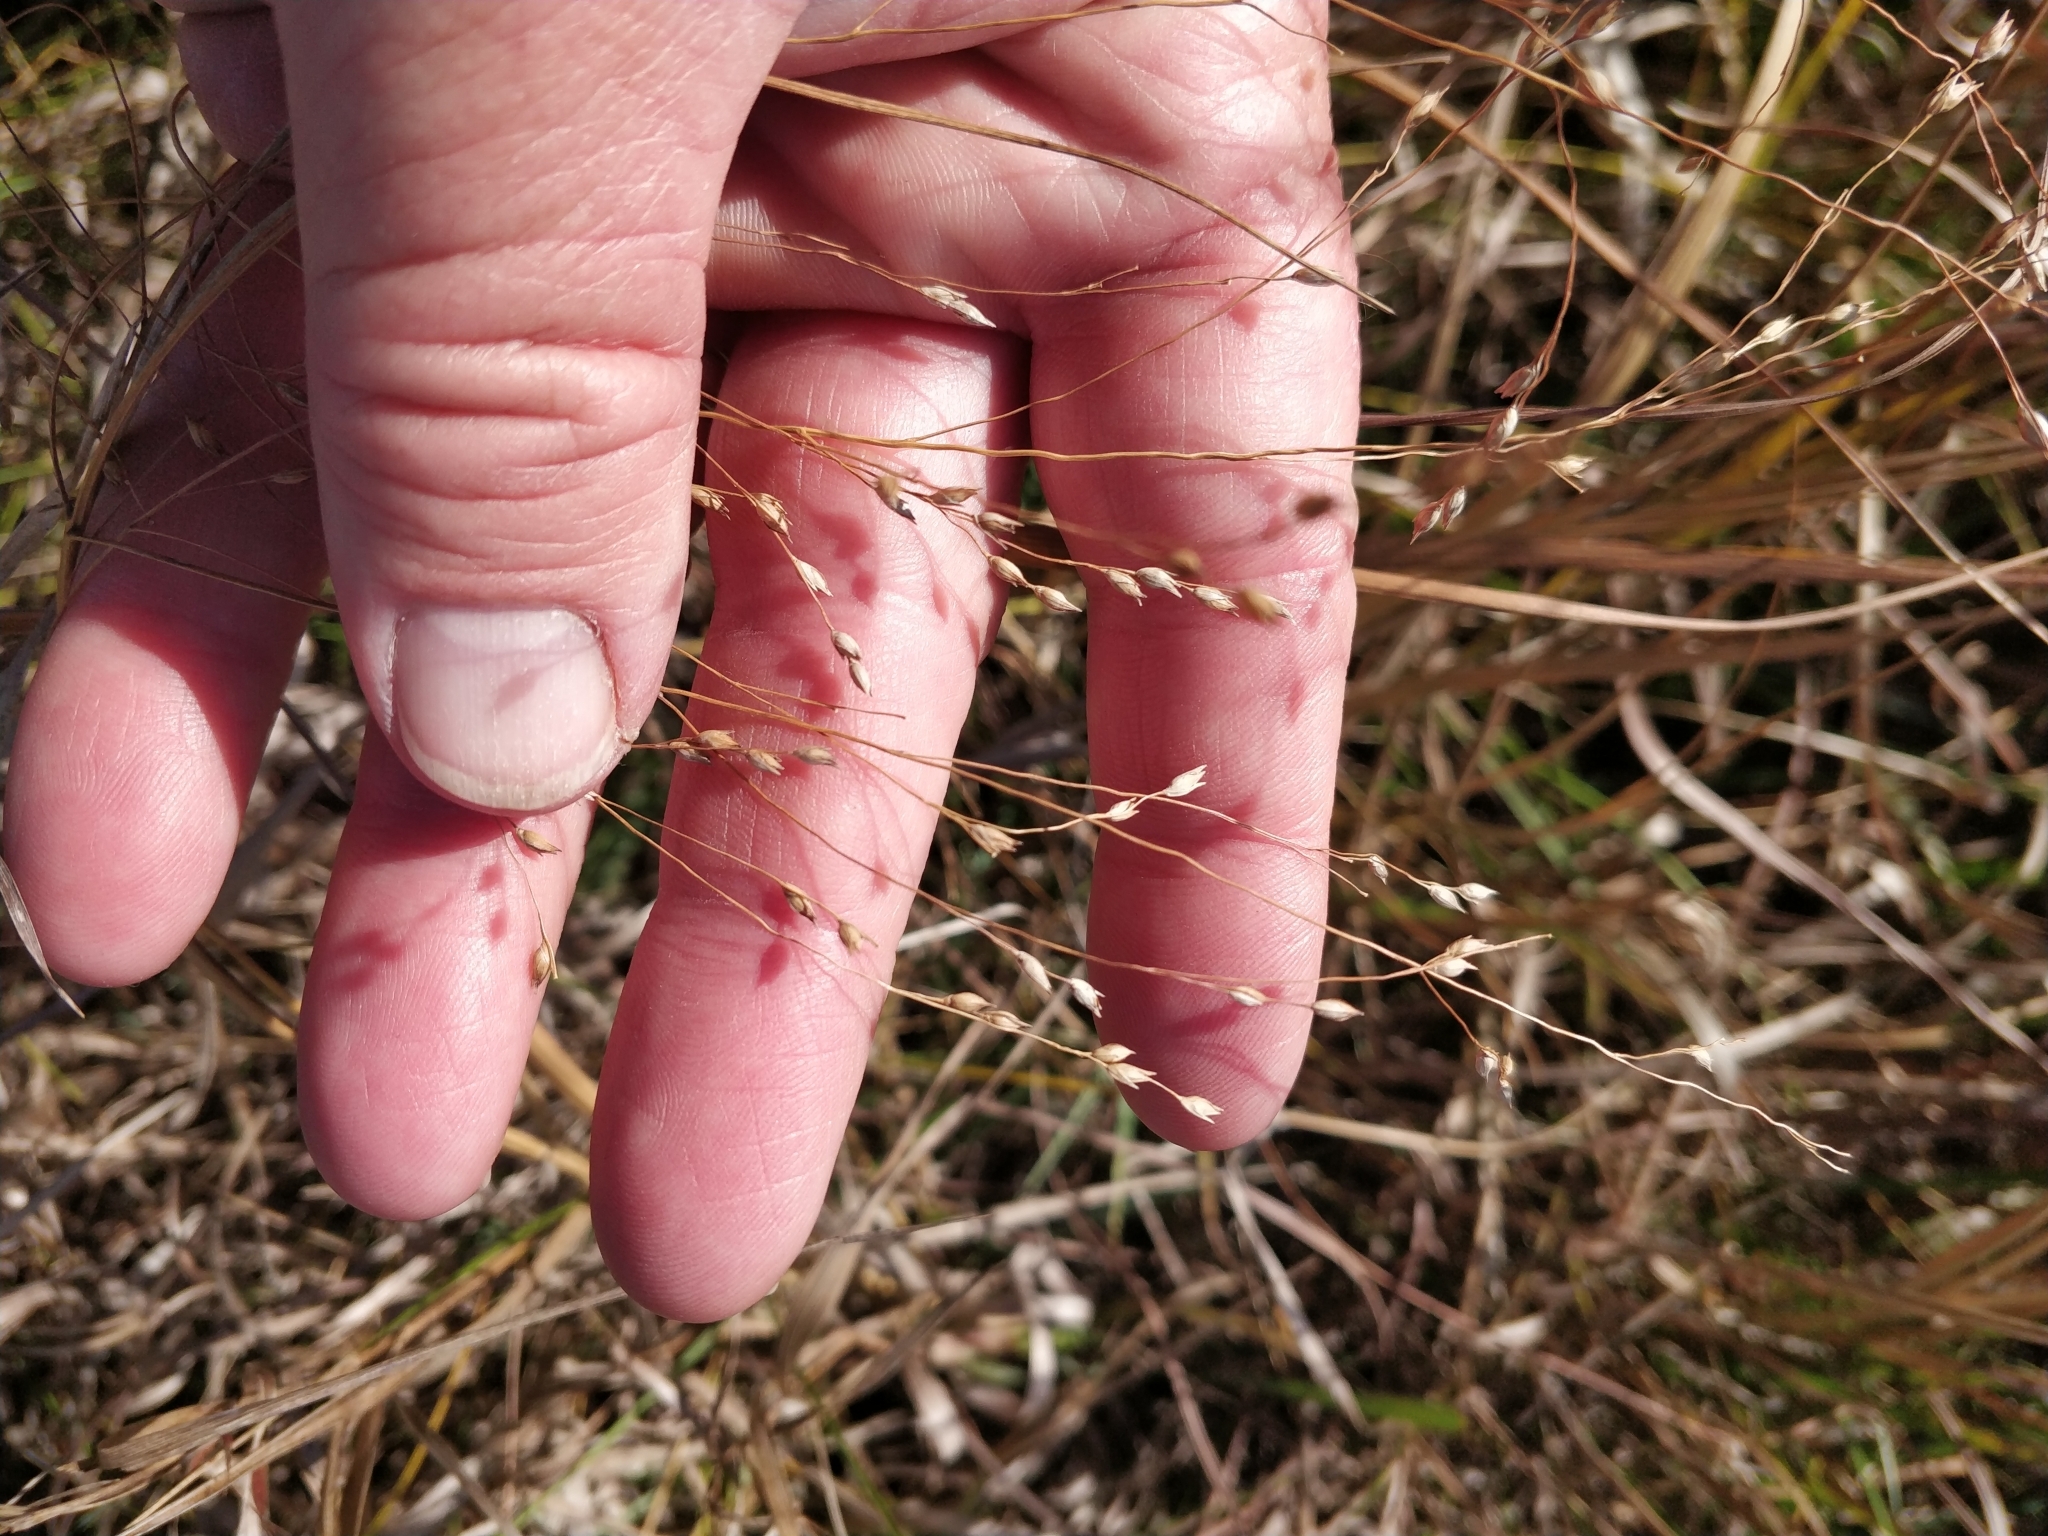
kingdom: Plantae
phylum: Tracheophyta
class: Liliopsida
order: Poales
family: Poaceae
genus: Panicum
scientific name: Panicum virgatum
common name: Switchgrass
